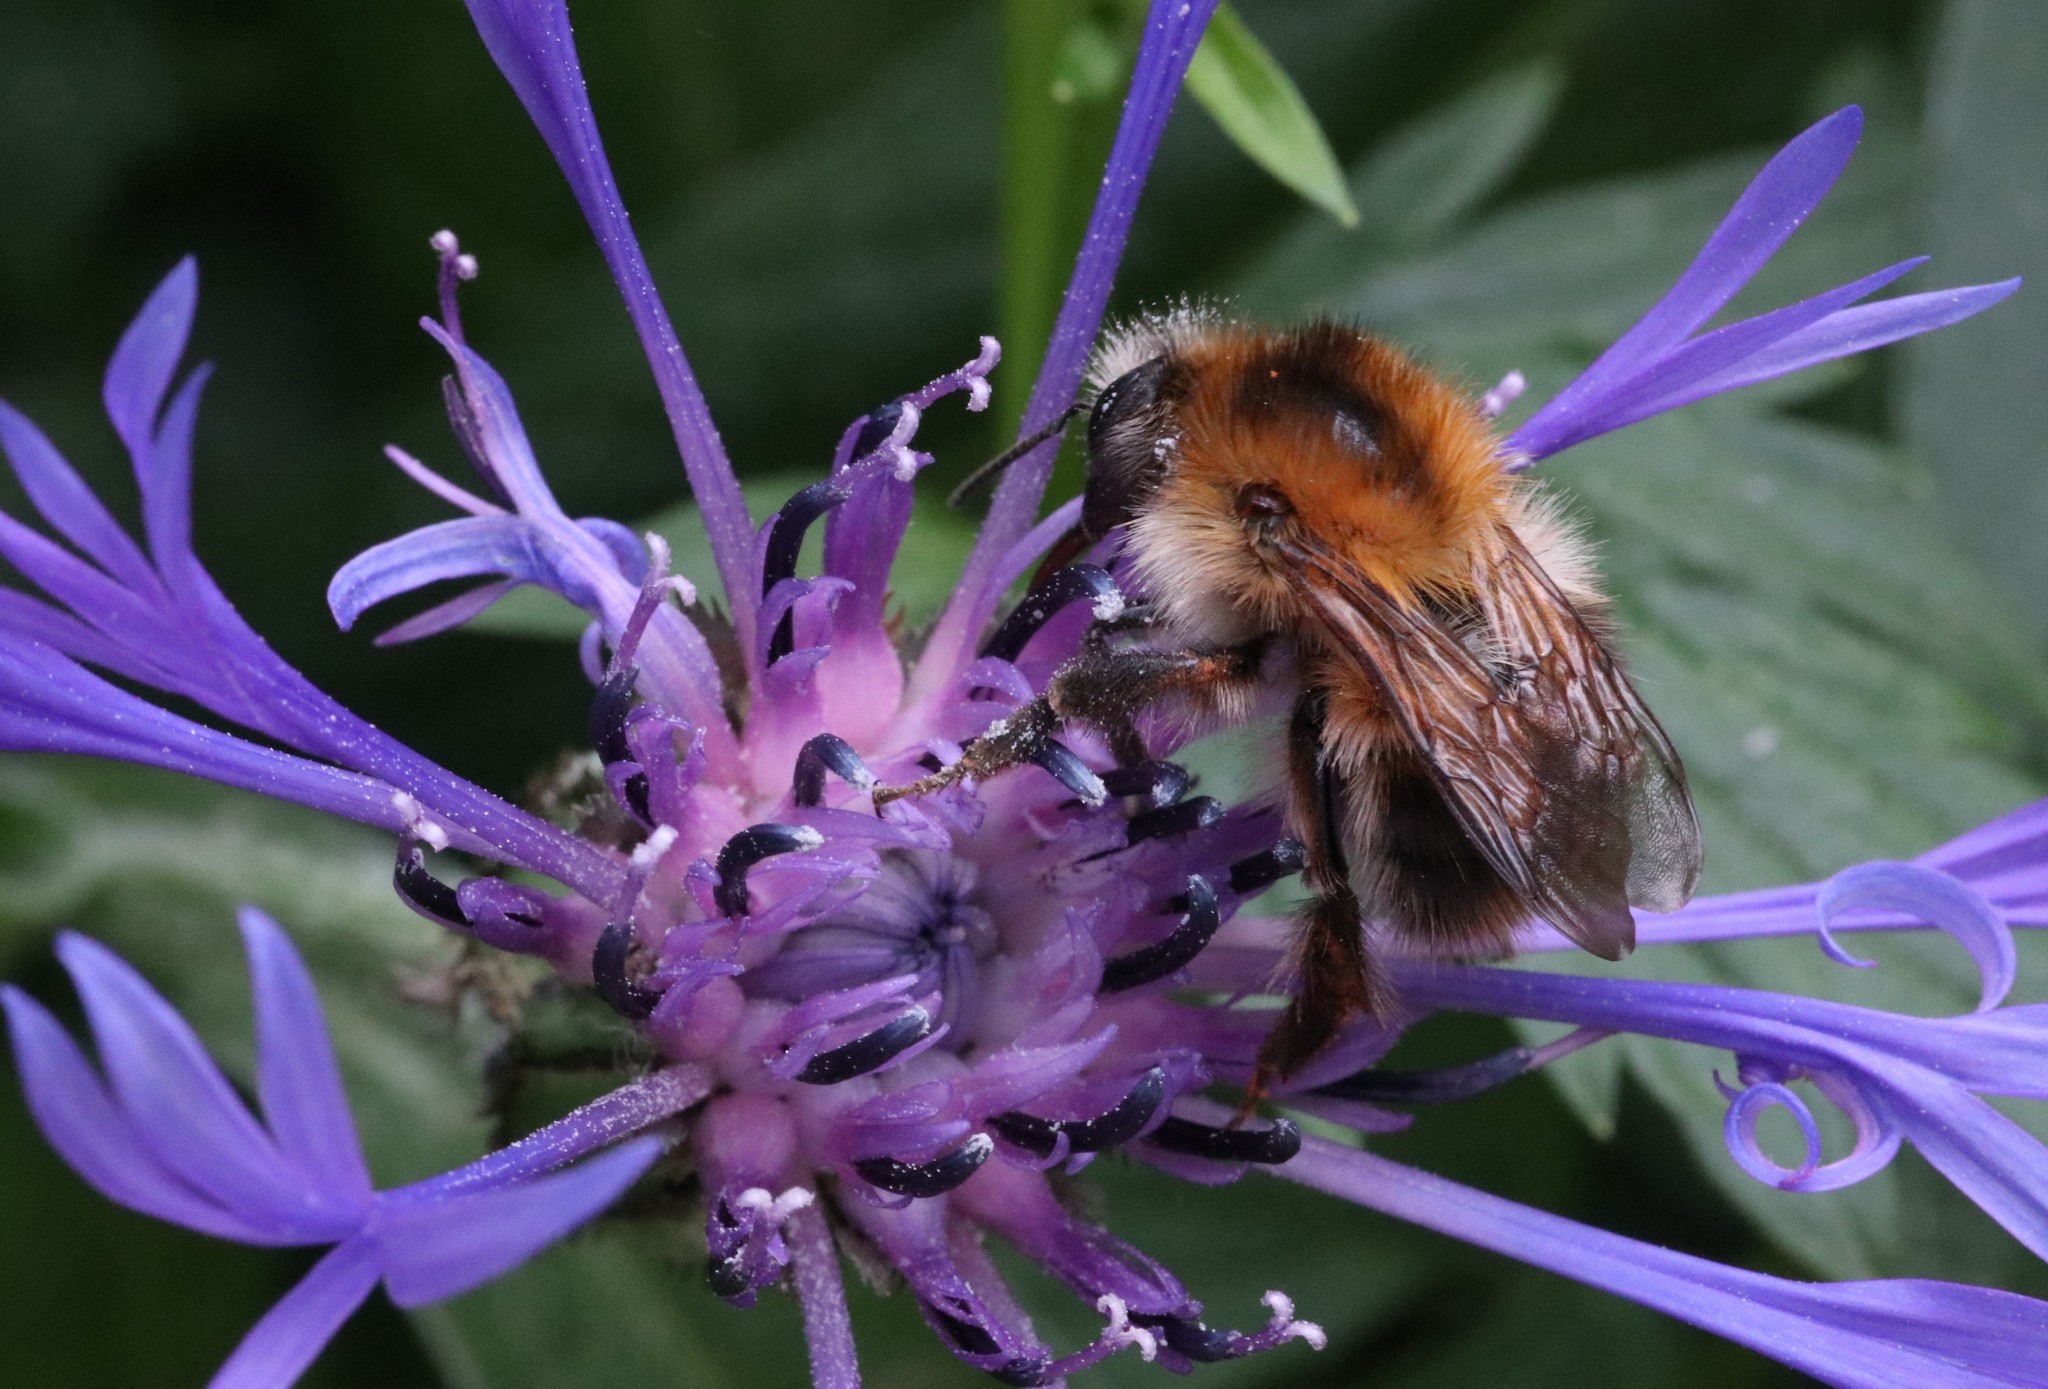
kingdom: Animalia
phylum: Arthropoda
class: Insecta
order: Hymenoptera
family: Apidae
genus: Bombus
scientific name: Bombus pascuorum
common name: Common carder bee
